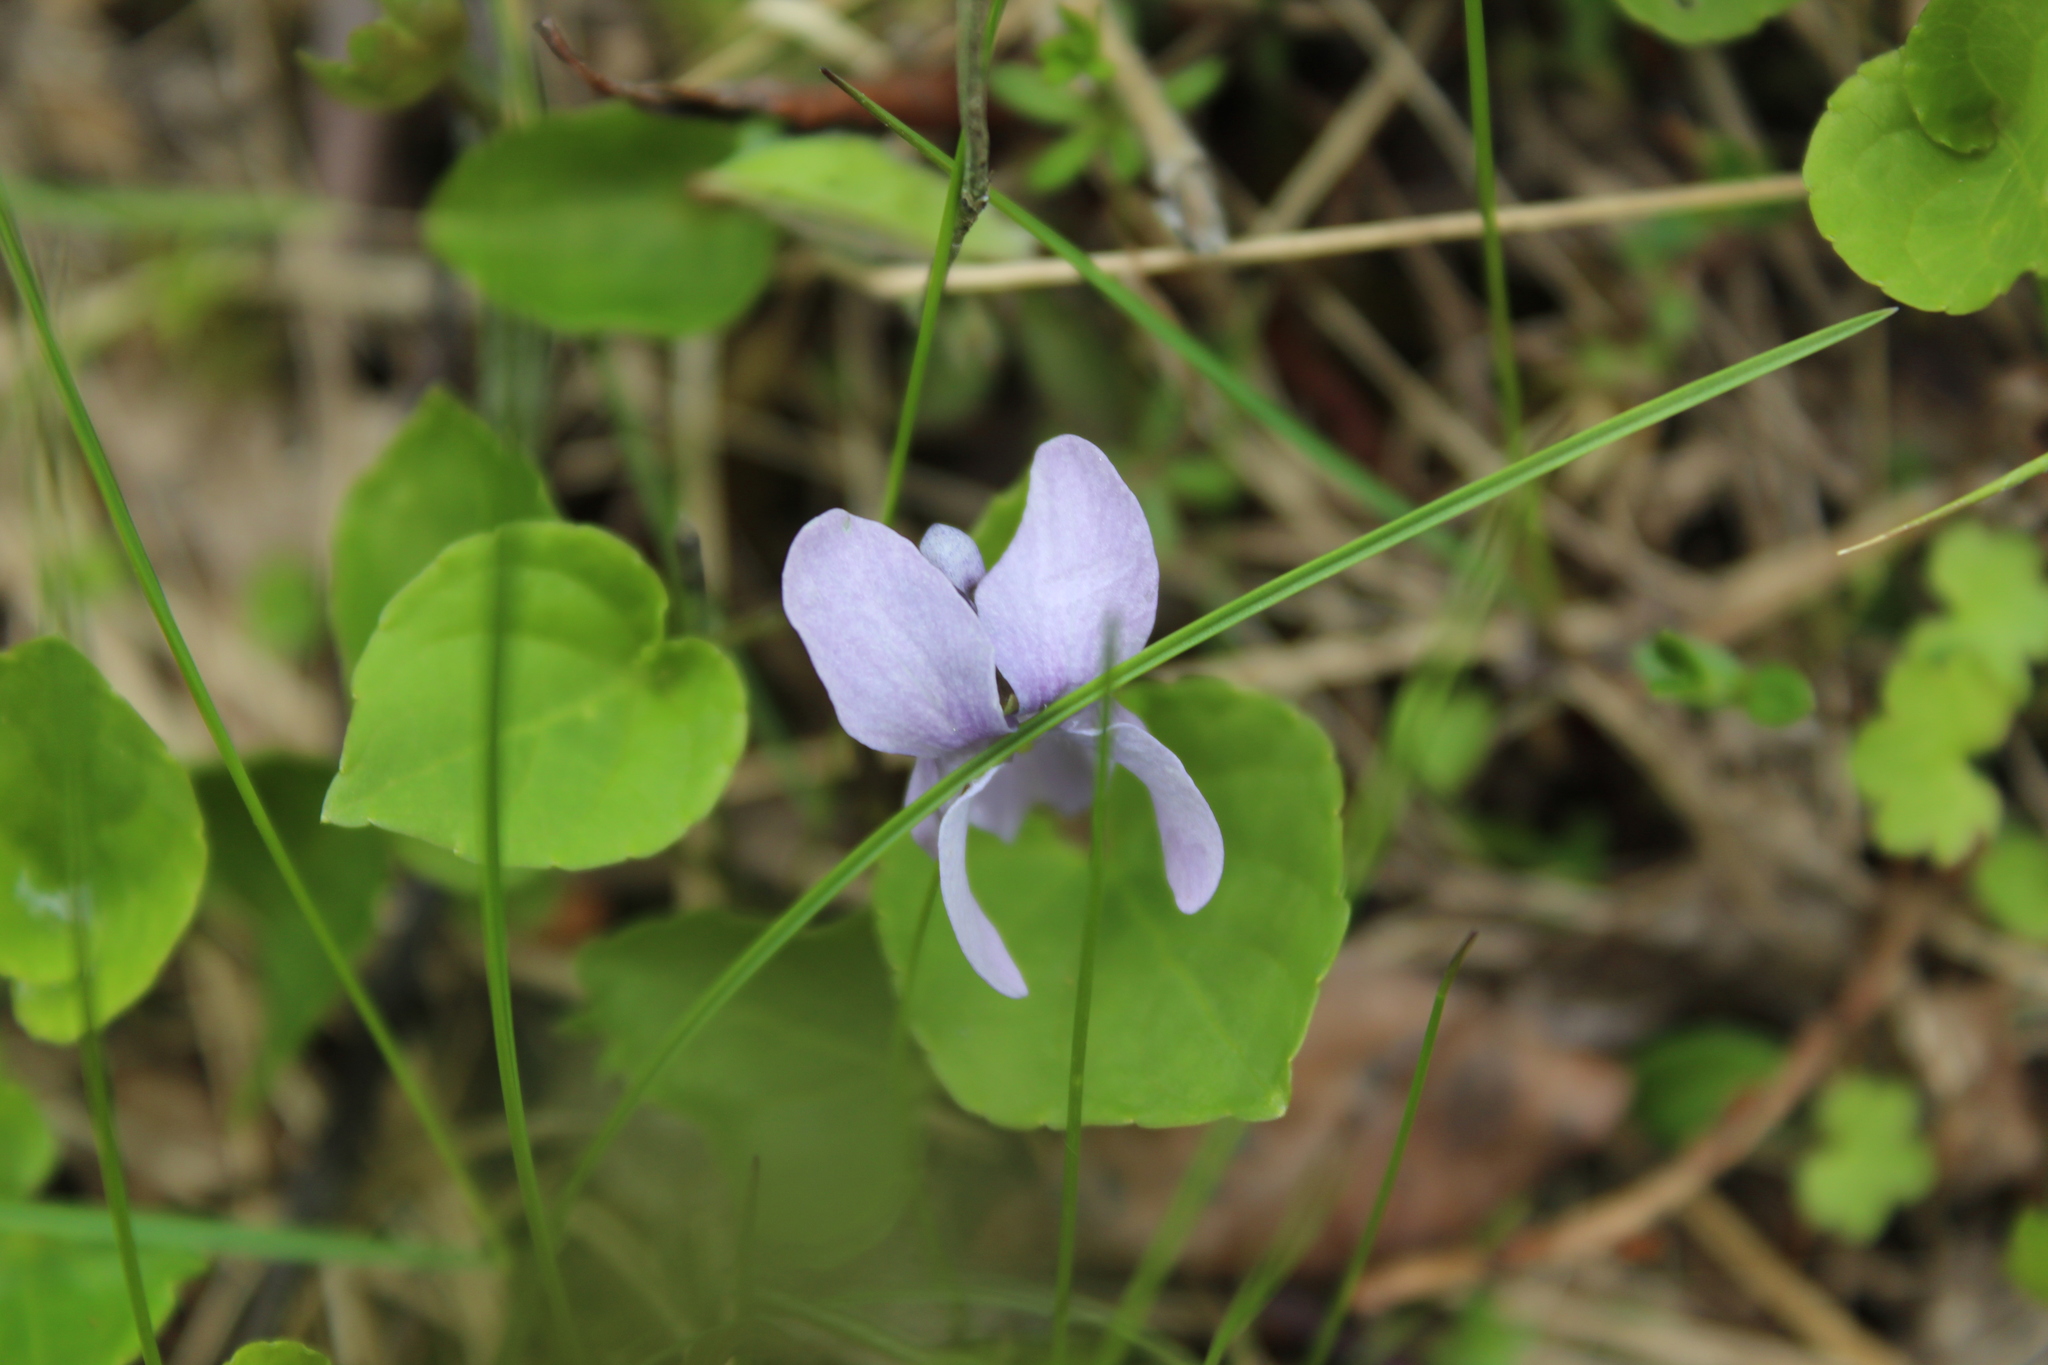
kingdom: Plantae
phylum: Tracheophyta
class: Magnoliopsida
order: Malpighiales
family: Violaceae
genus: Viola
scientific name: Viola epipsila
